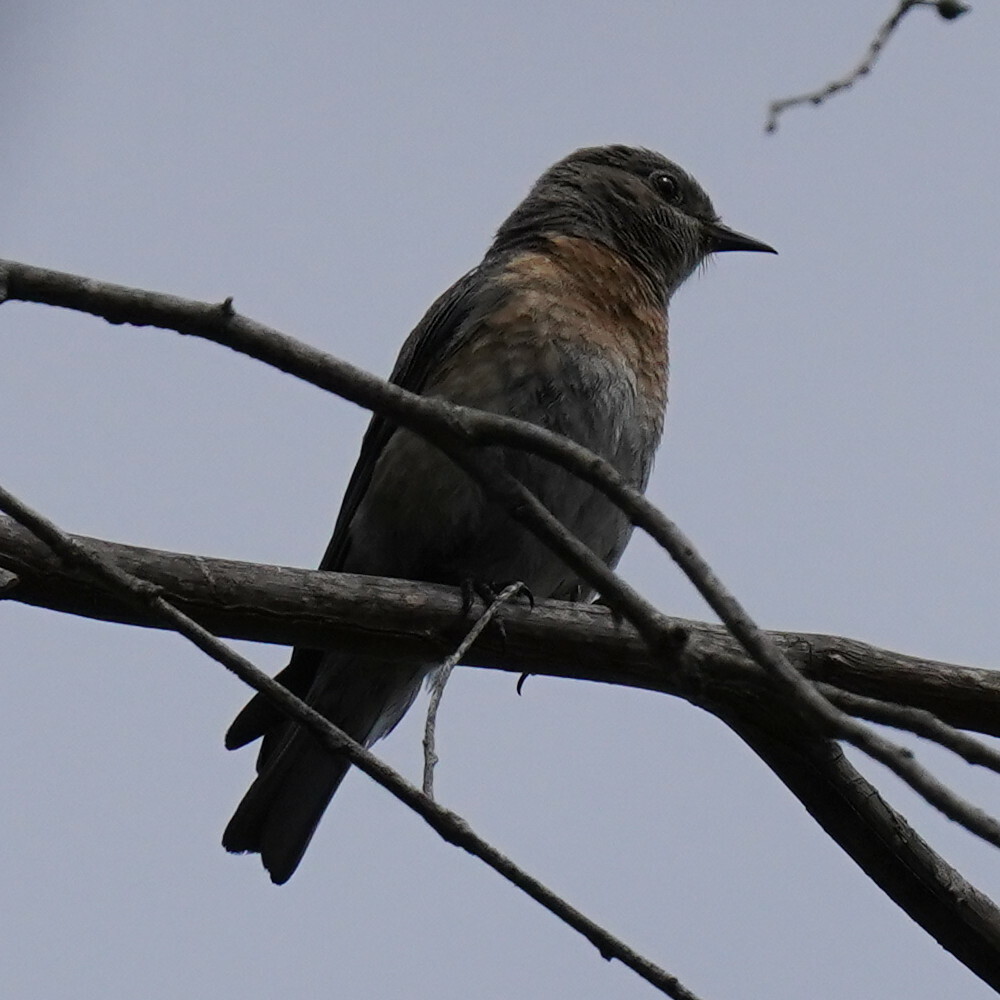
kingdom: Animalia
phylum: Chordata
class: Aves
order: Passeriformes
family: Turdidae
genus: Sialia
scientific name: Sialia mexicana
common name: Western bluebird
